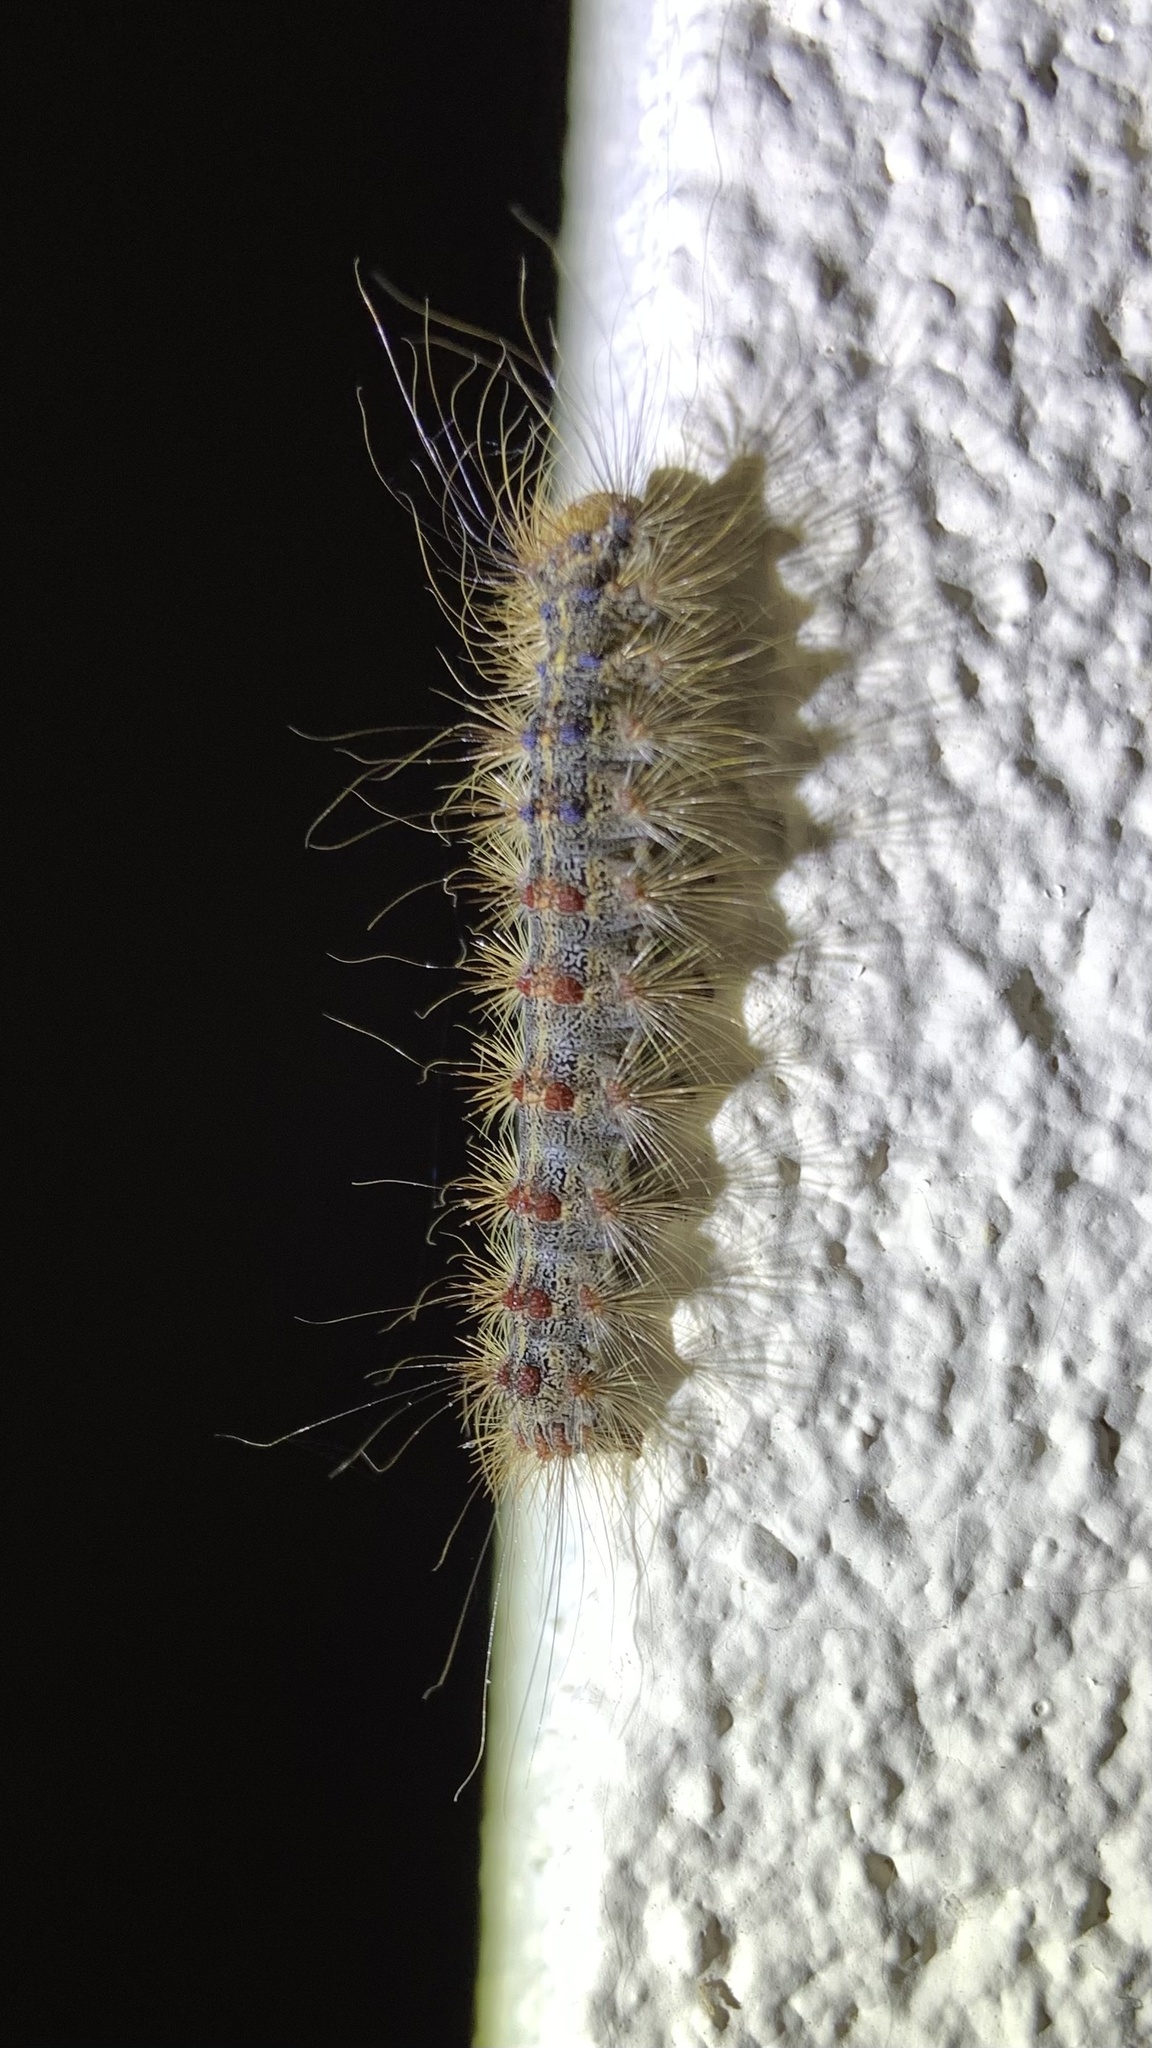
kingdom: Animalia
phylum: Arthropoda
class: Insecta
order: Lepidoptera
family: Erebidae
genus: Lymantria
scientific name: Lymantria dispar
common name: Gypsy moth
